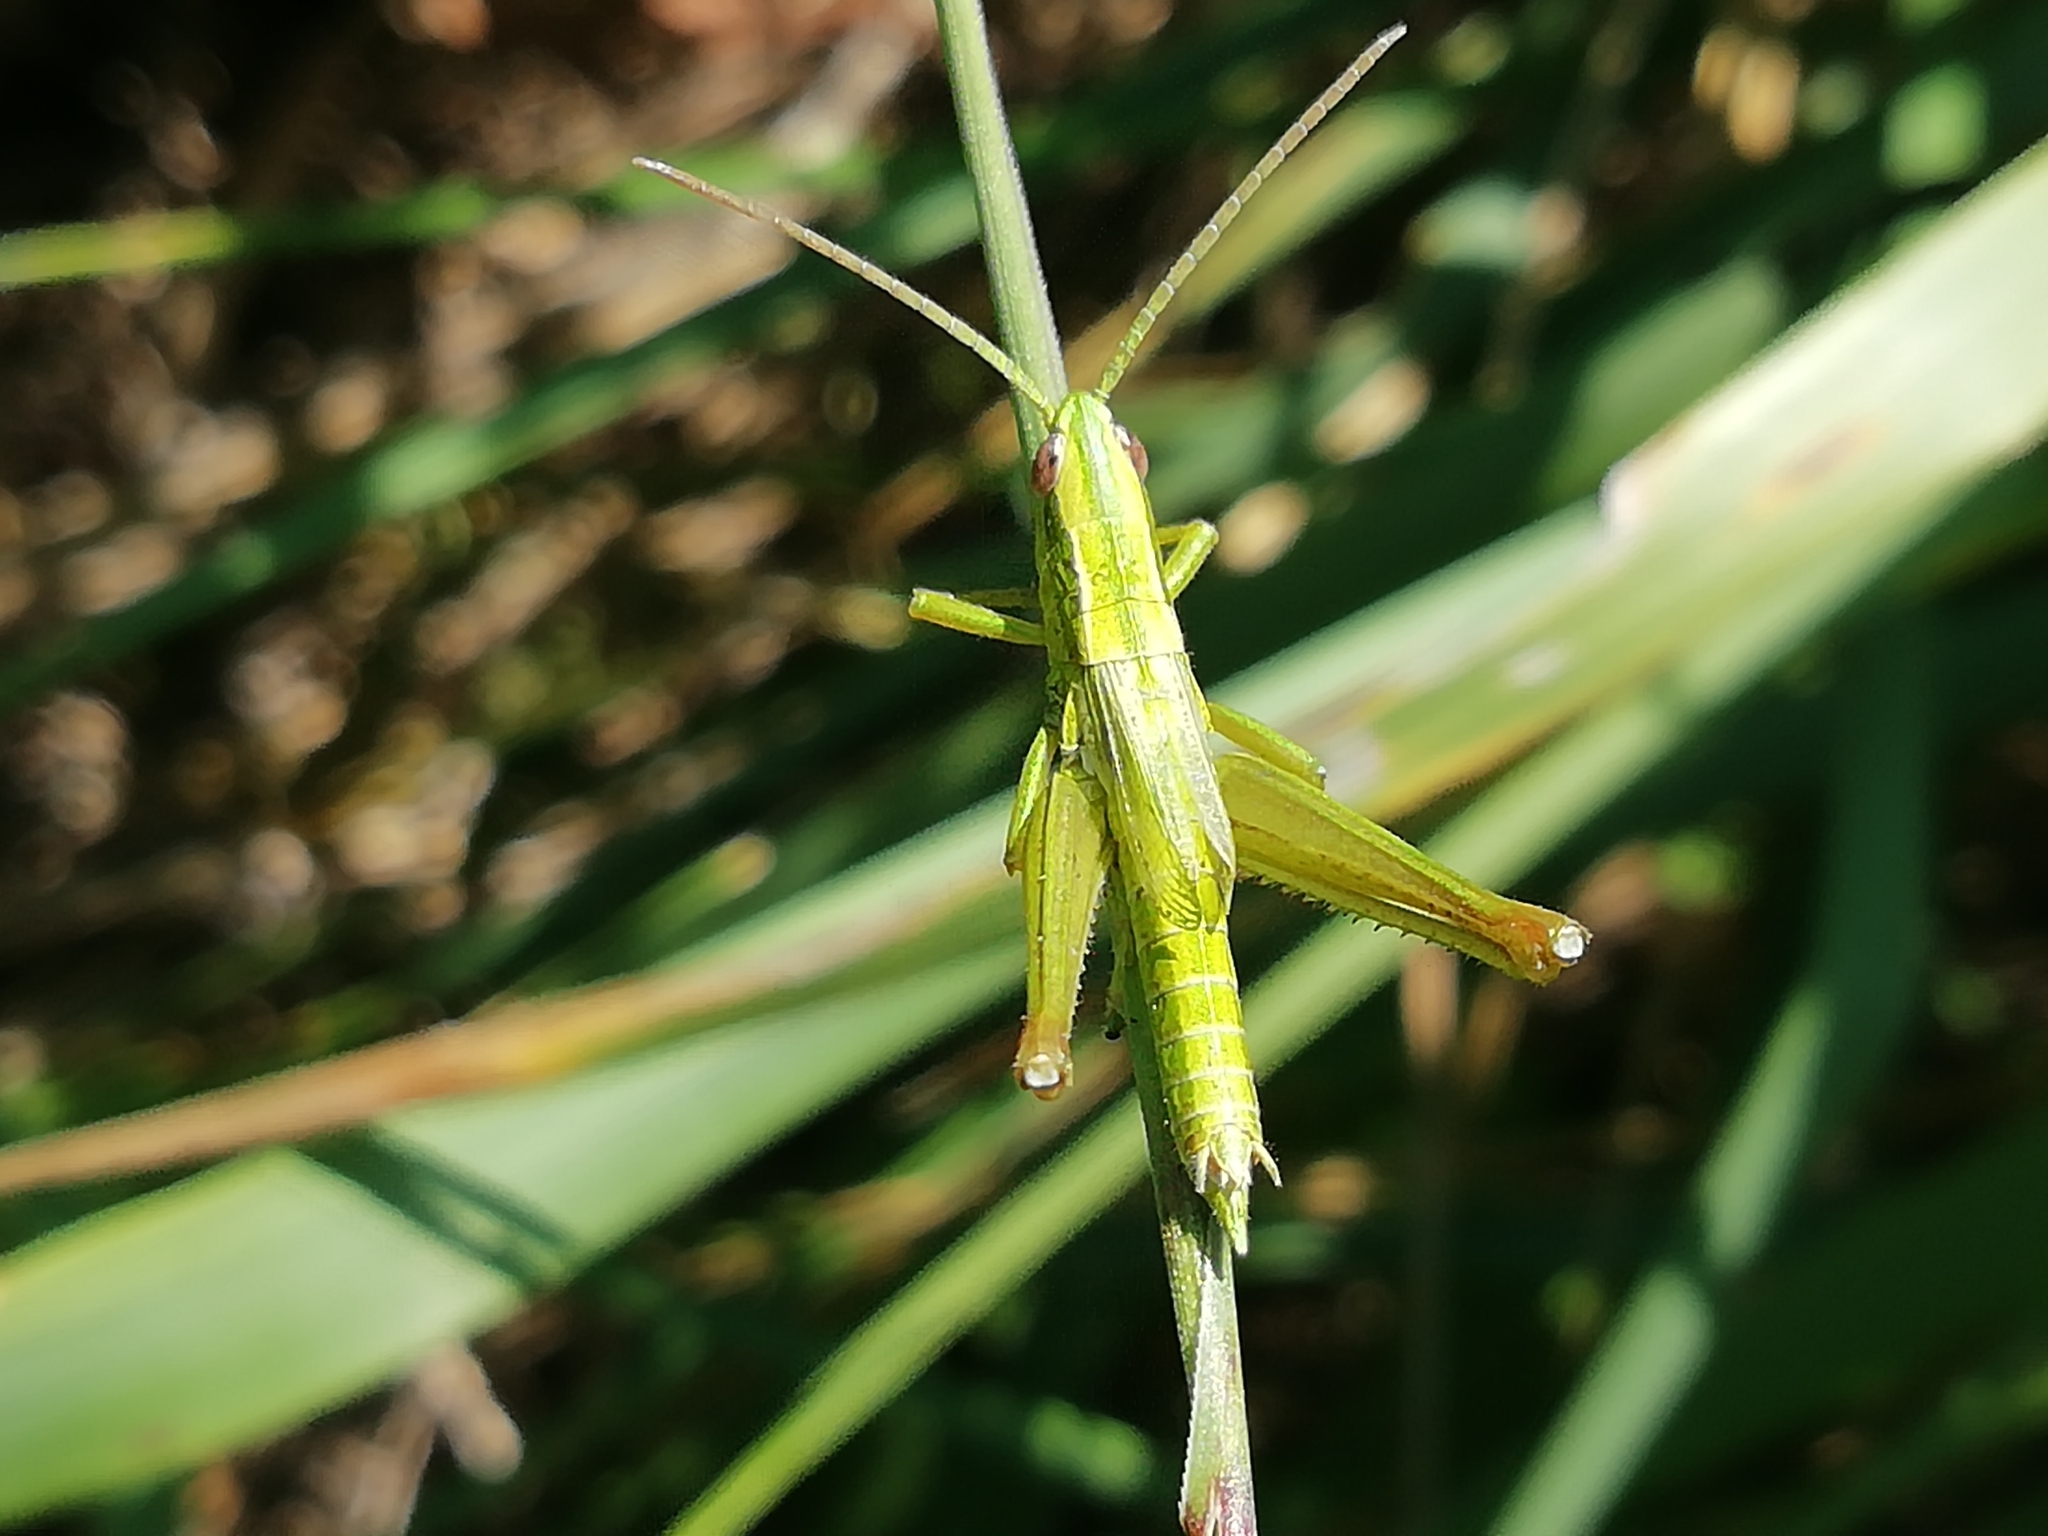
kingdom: Animalia
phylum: Arthropoda
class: Insecta
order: Orthoptera
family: Acrididae
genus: Euthystira
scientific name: Euthystira brachyptera
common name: Small gold grasshopper
